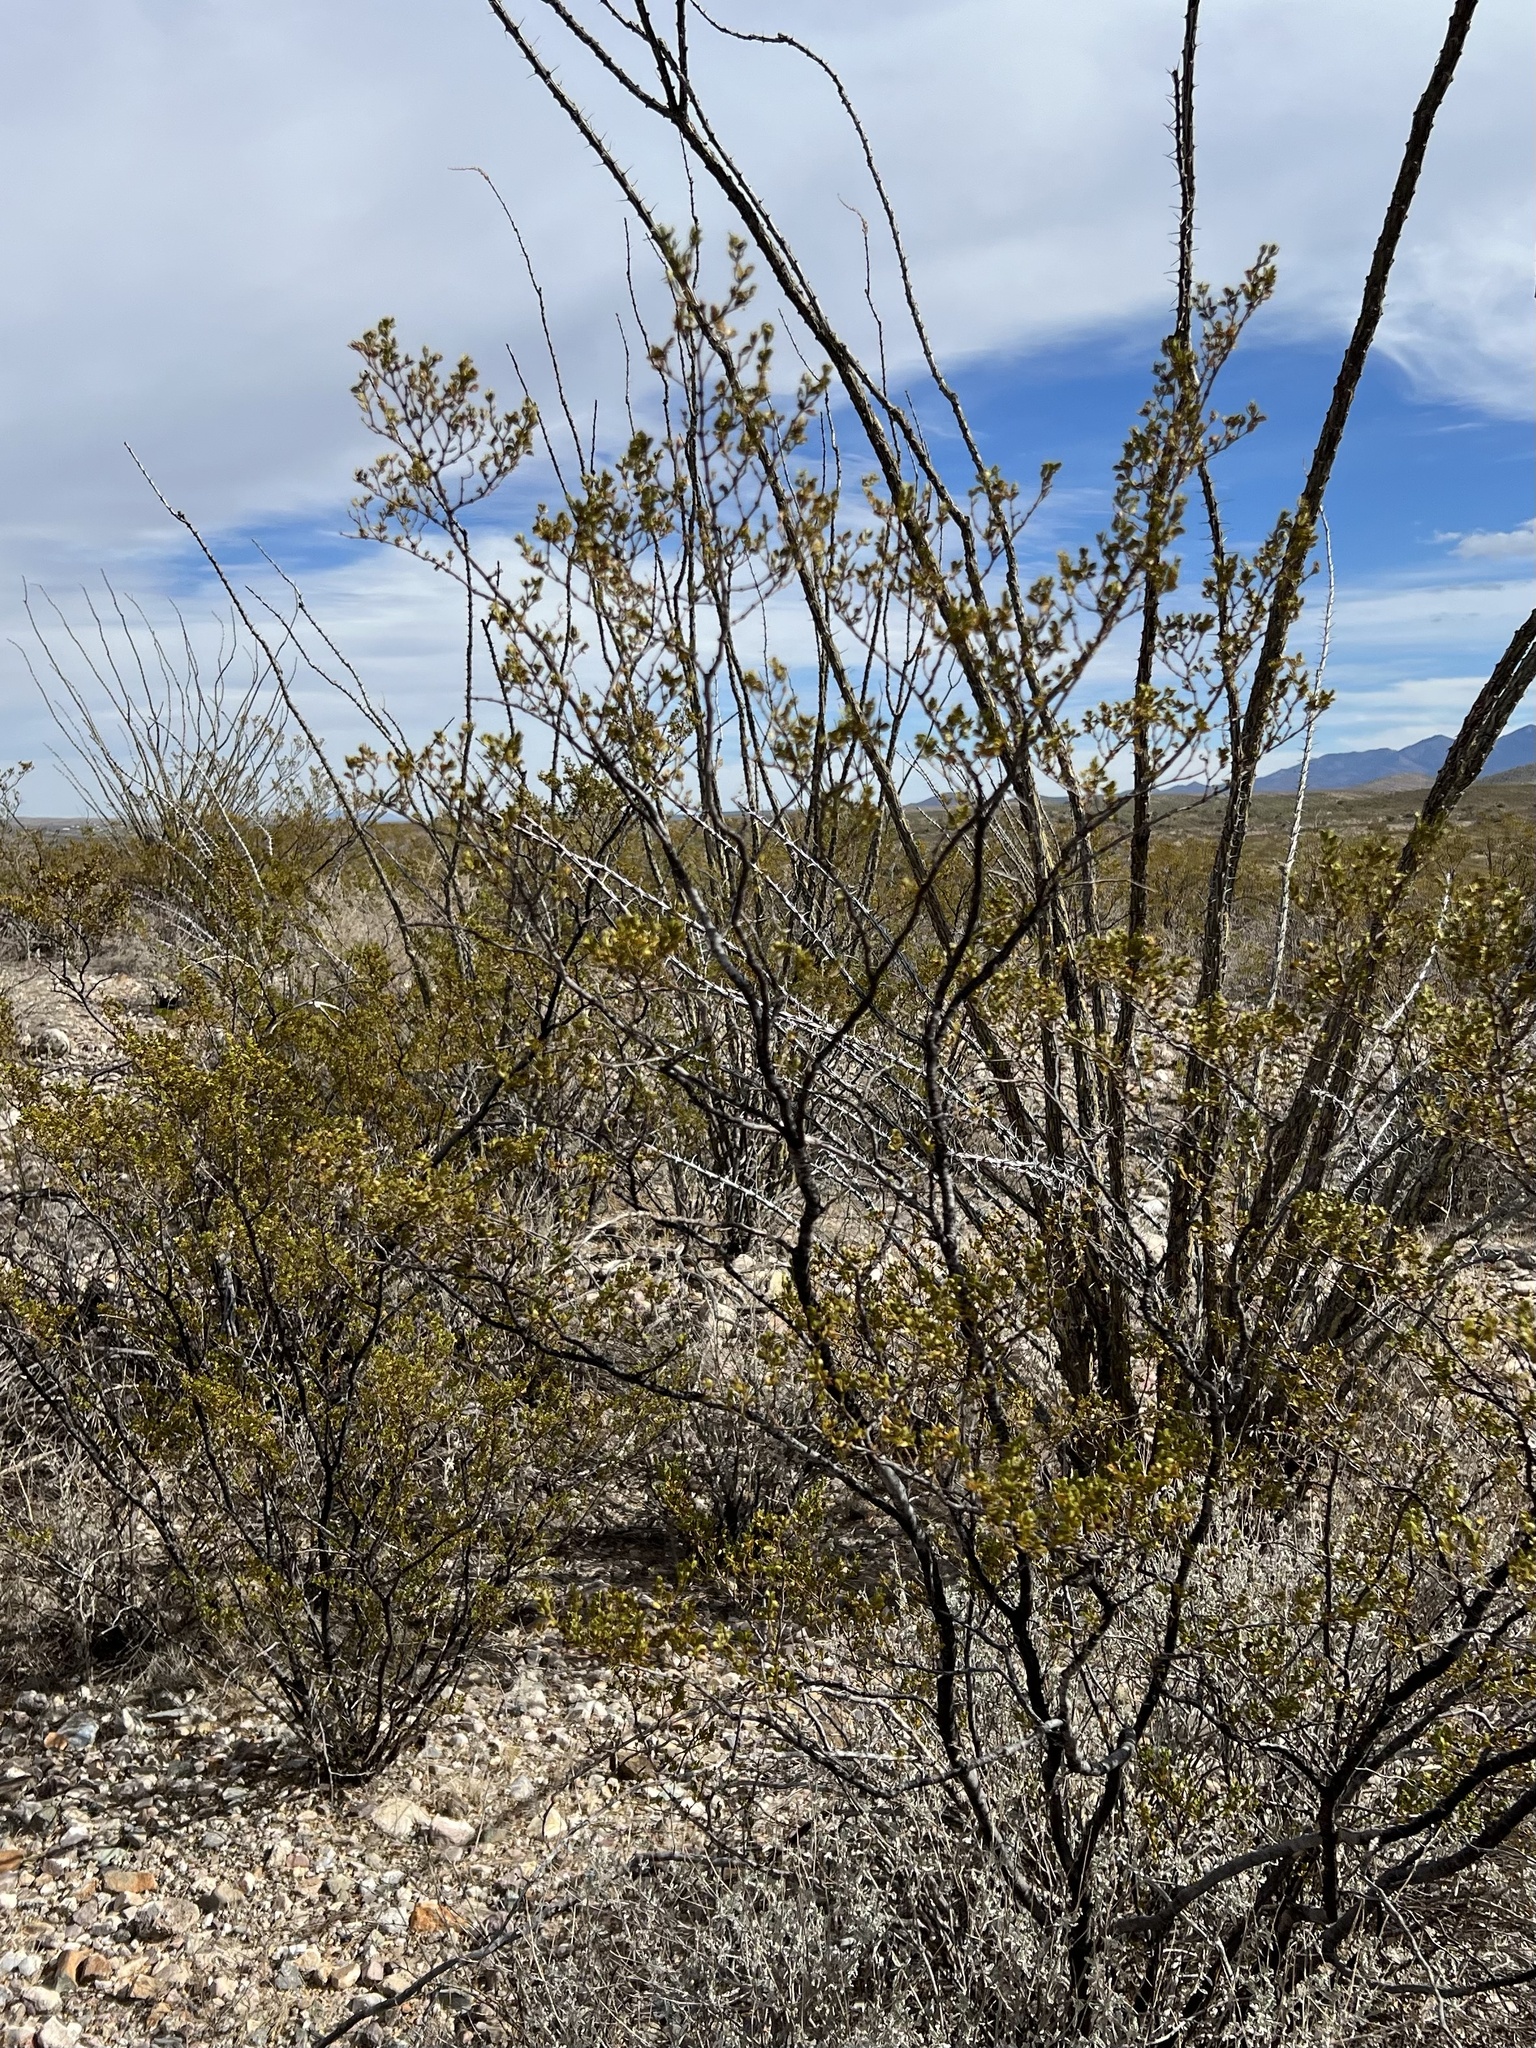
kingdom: Plantae
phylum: Tracheophyta
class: Magnoliopsida
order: Zygophyllales
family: Zygophyllaceae
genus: Larrea
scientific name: Larrea tridentata
